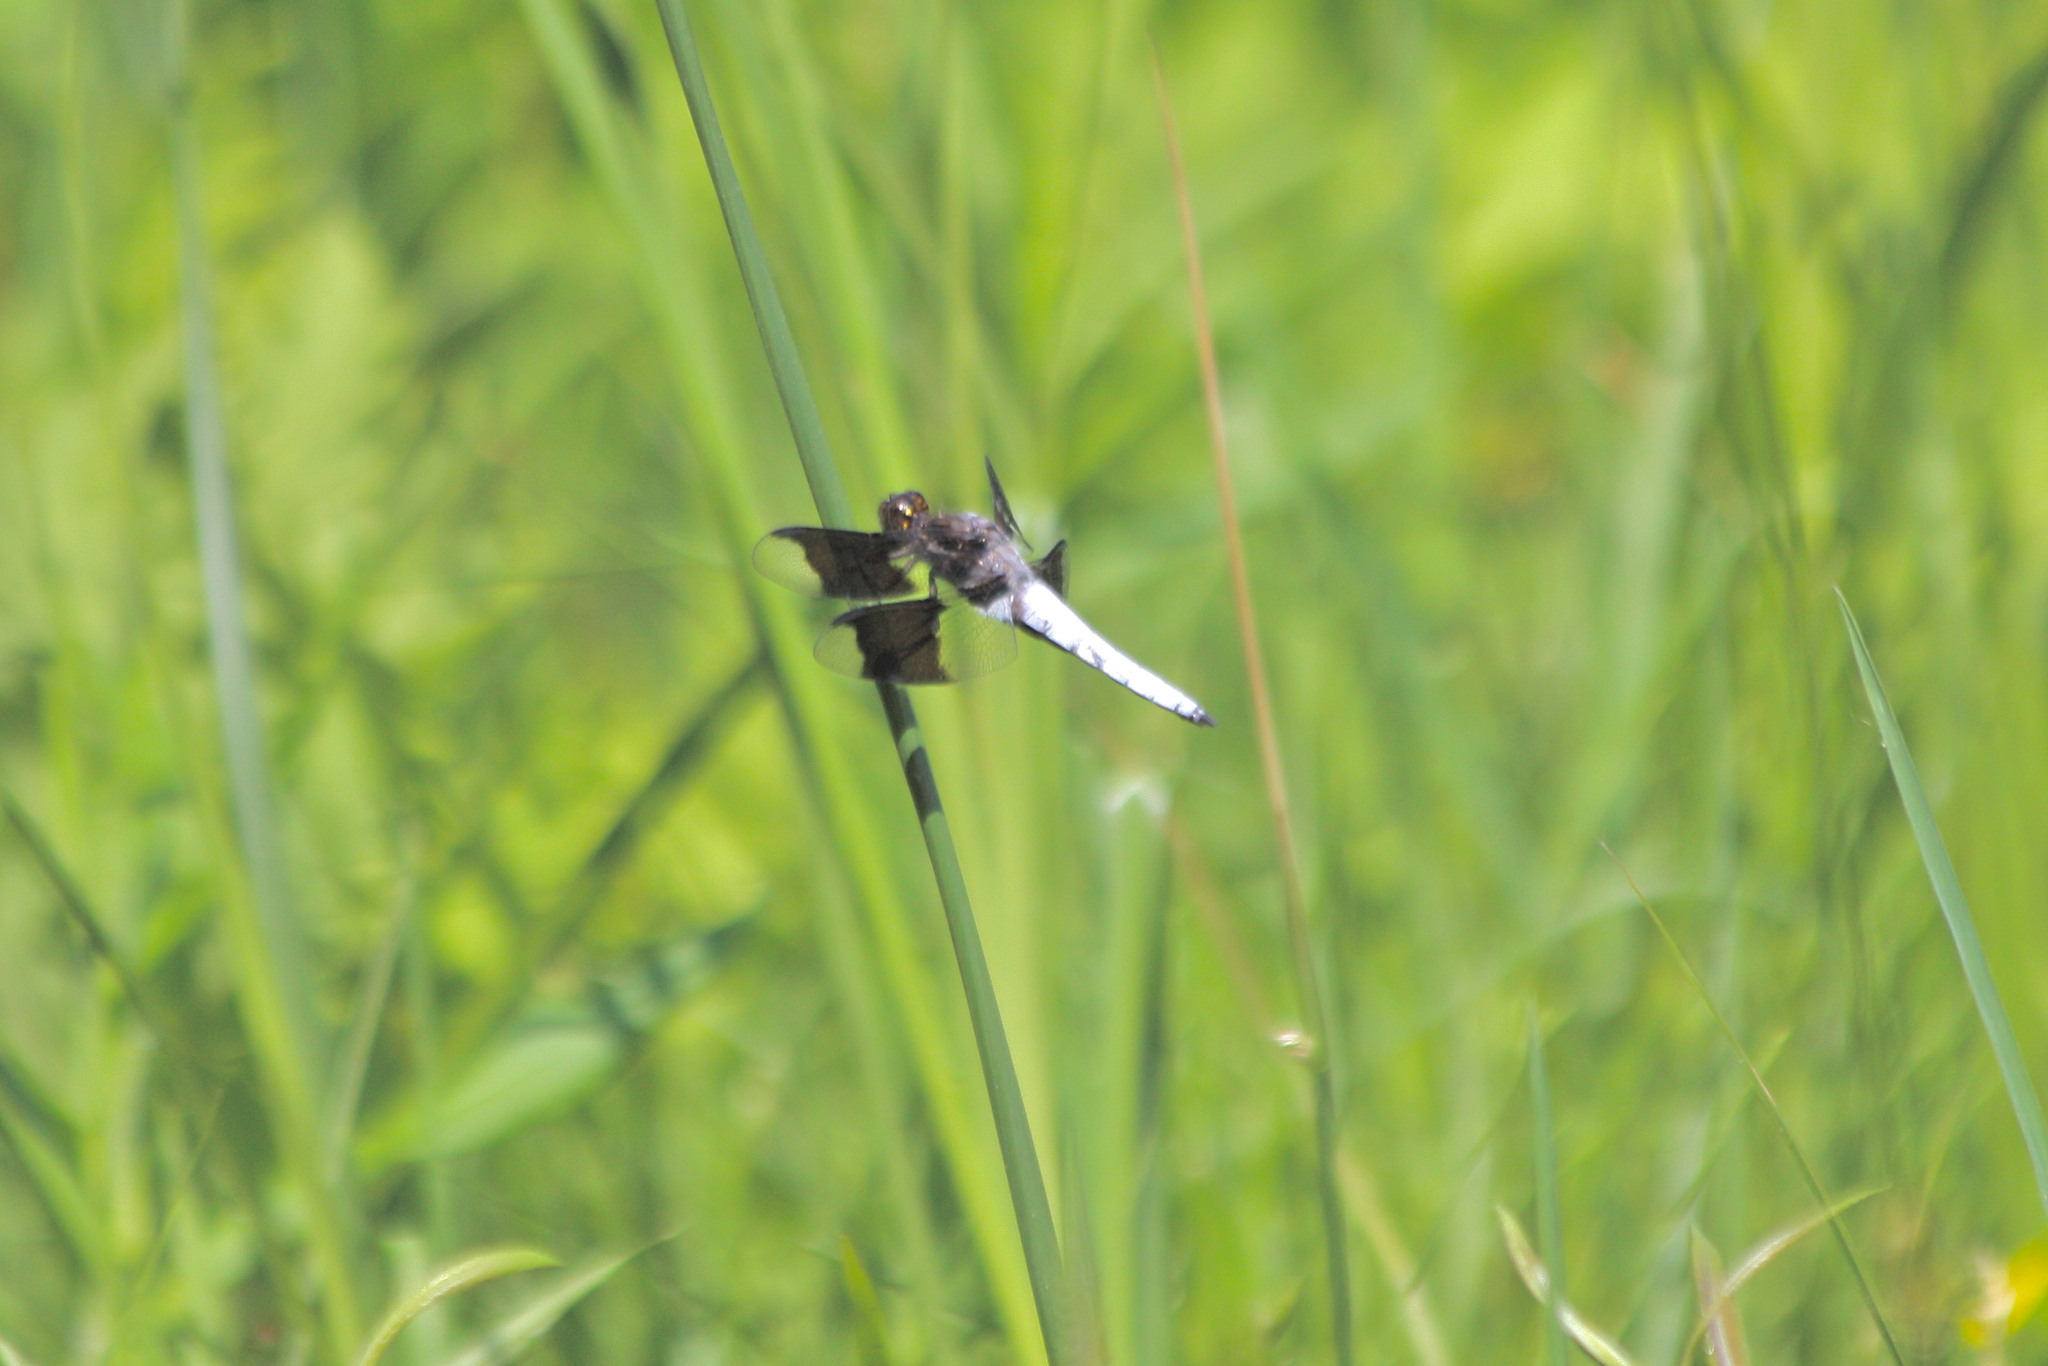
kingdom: Animalia
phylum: Arthropoda
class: Insecta
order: Odonata
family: Libellulidae
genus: Plathemis
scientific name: Plathemis lydia
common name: Common whitetail
